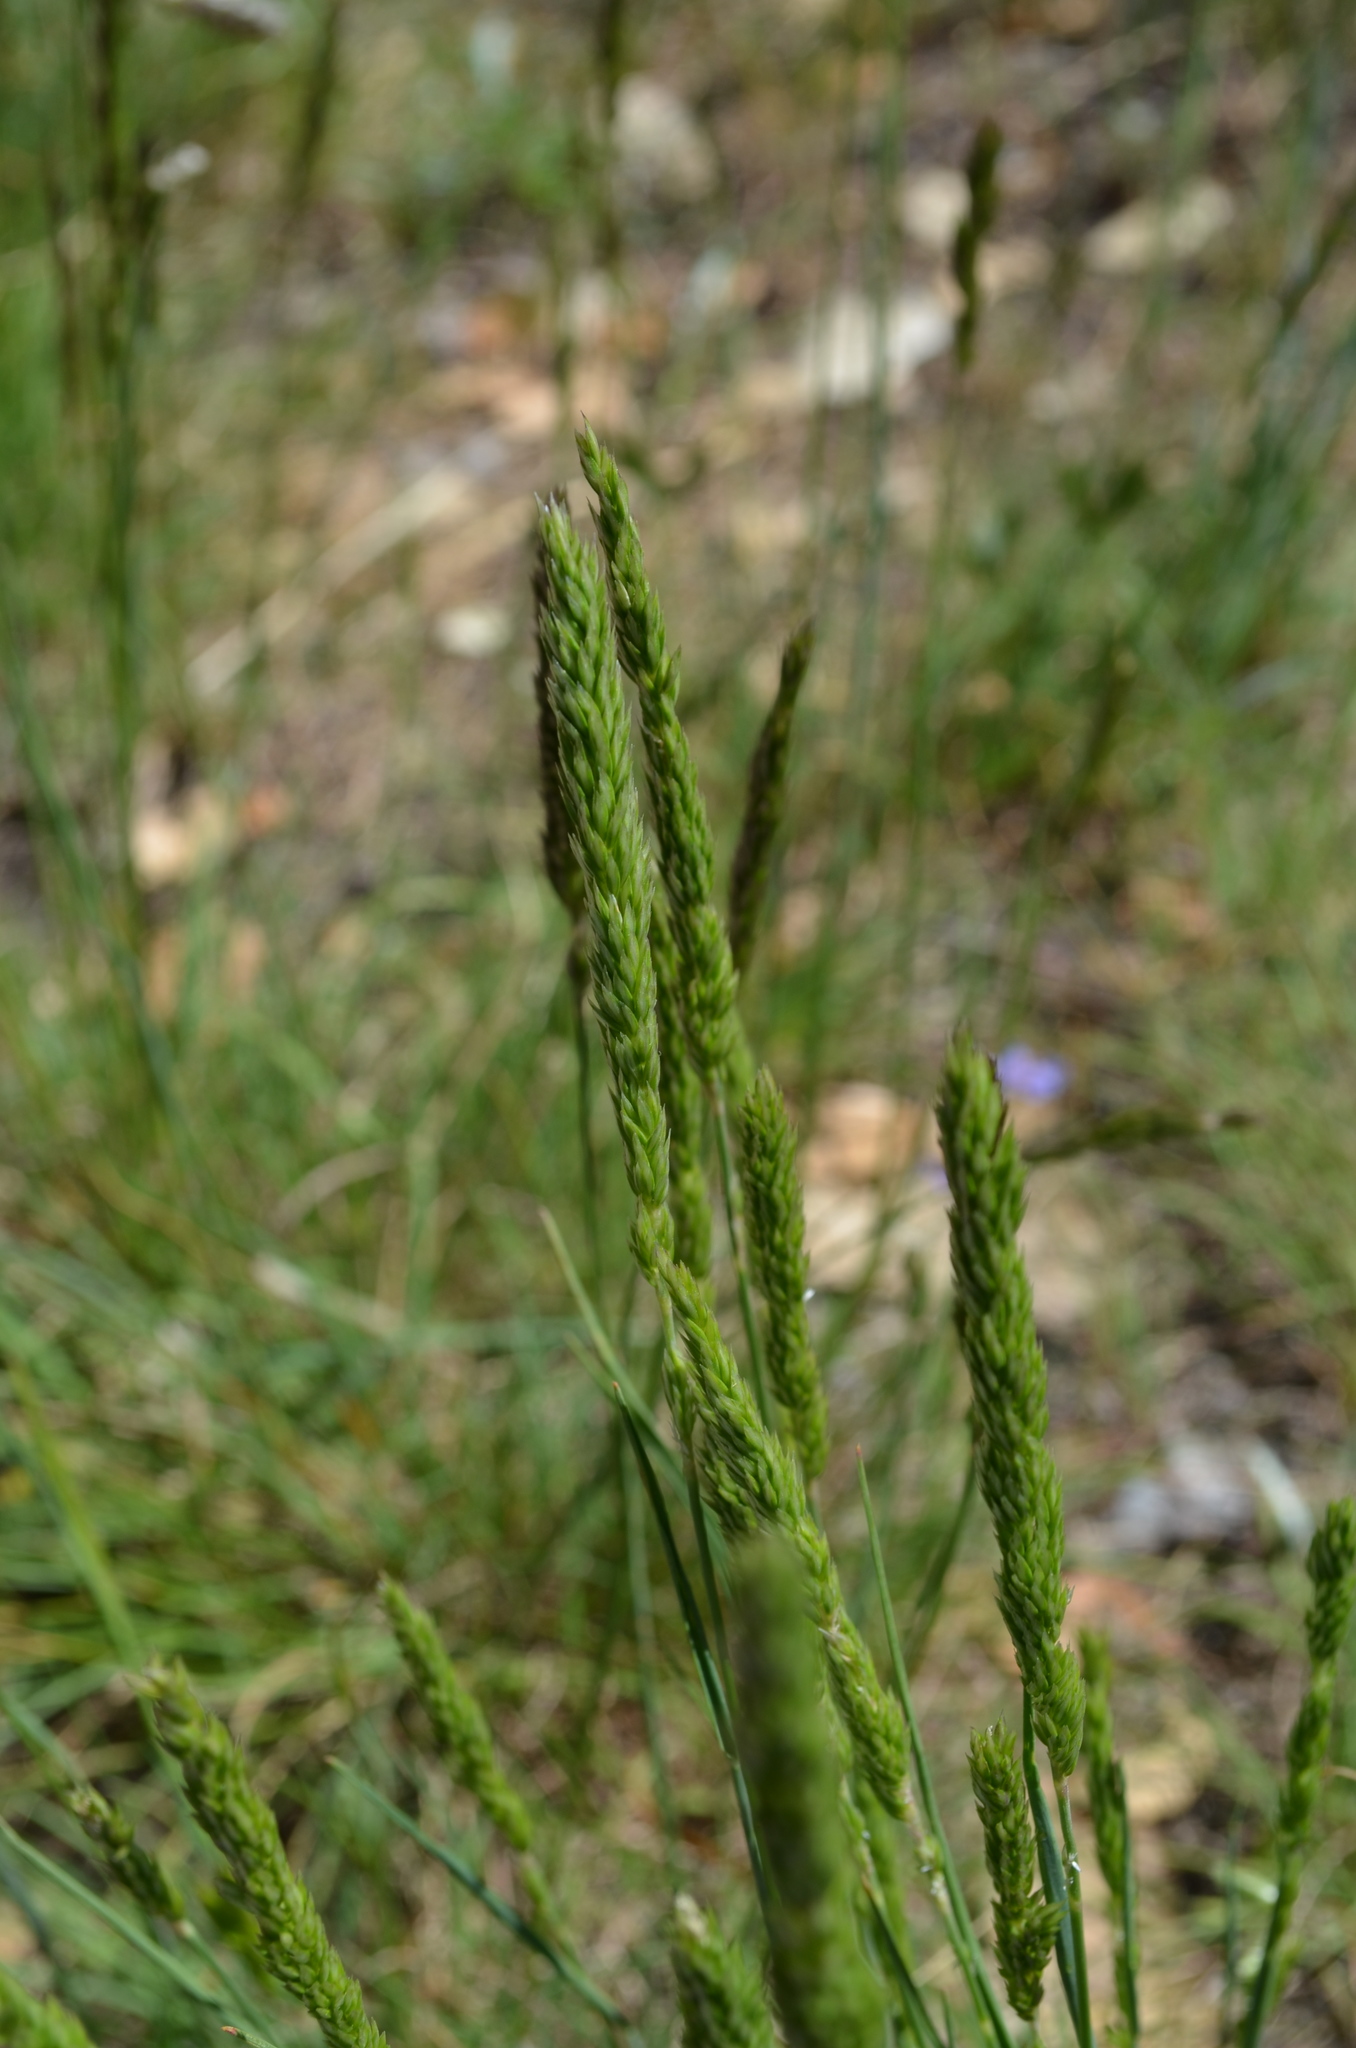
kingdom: Plantae
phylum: Tracheophyta
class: Liliopsida
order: Poales
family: Poaceae
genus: Koeleria
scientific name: Koeleria macrantha
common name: Crested hair-grass
